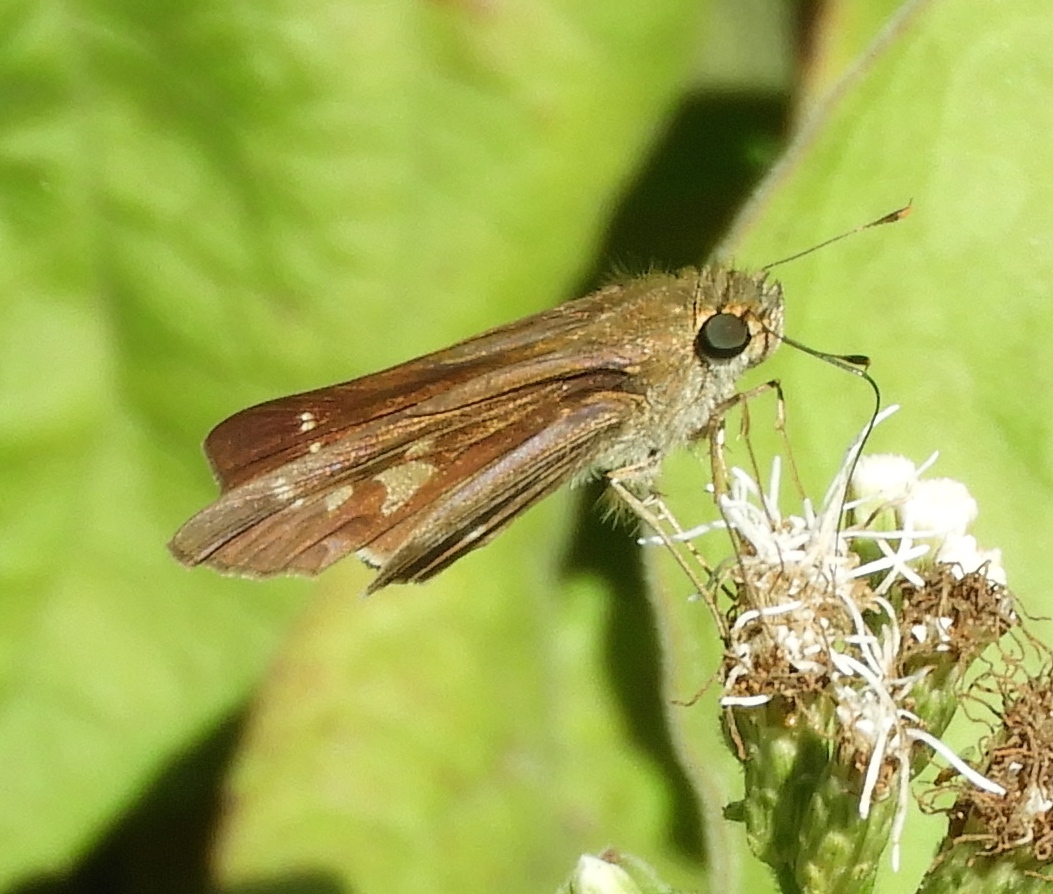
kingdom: Animalia
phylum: Arthropoda
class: Insecta
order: Lepidoptera
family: Hesperiidae
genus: Panoquina
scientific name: Panoquina
